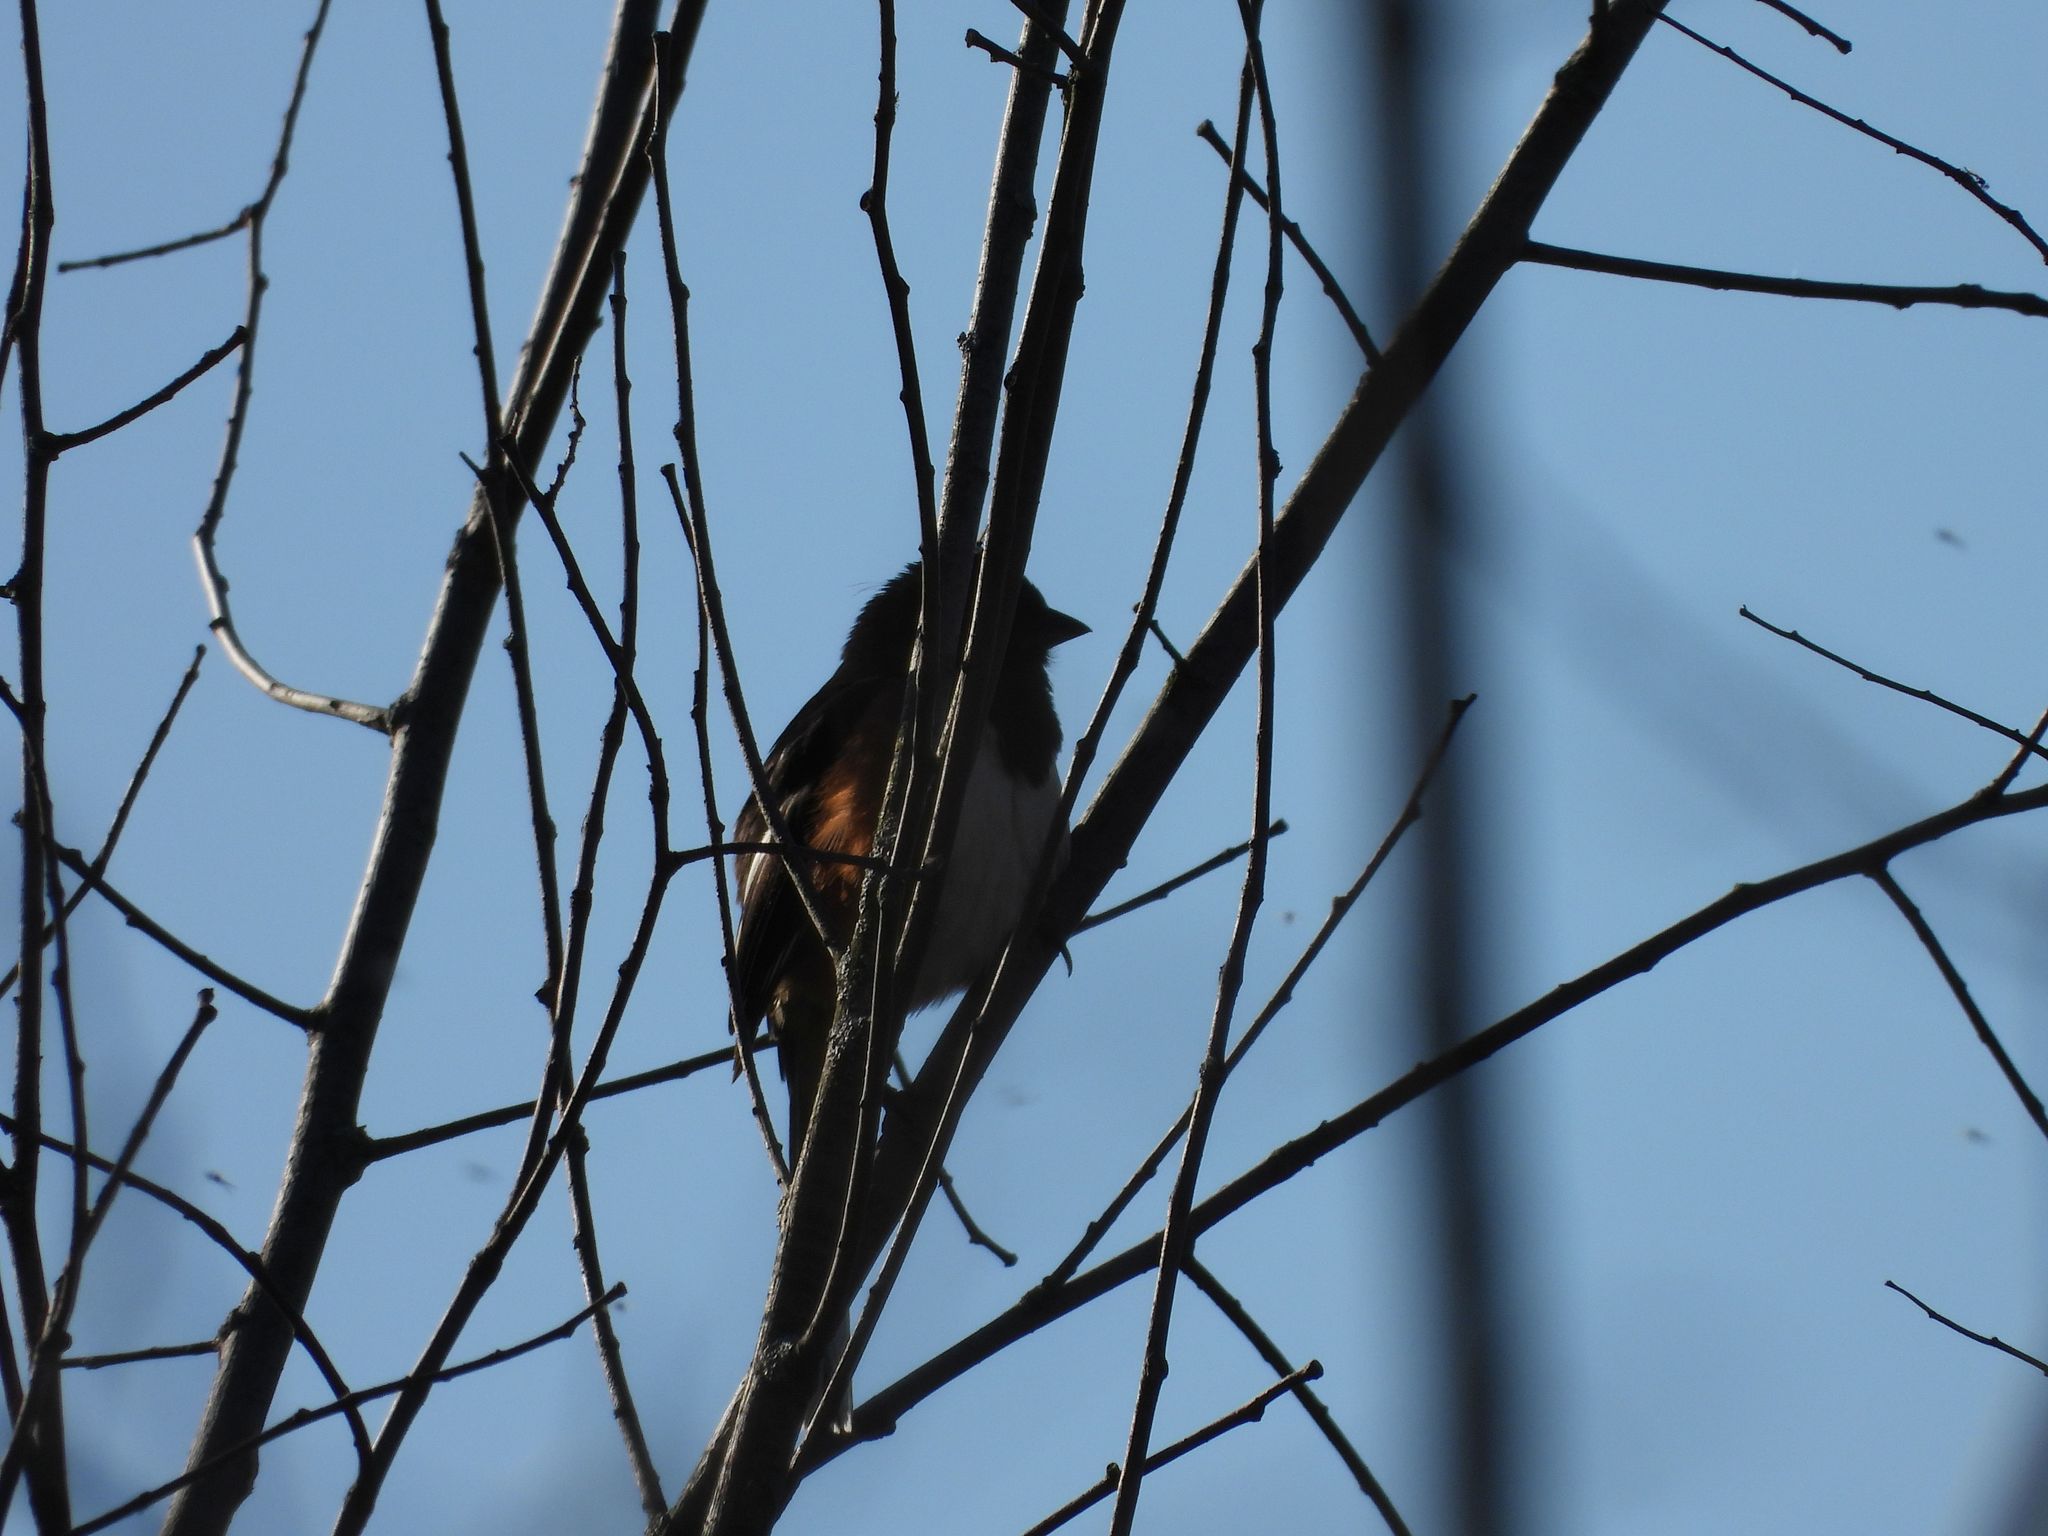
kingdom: Animalia
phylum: Chordata
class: Aves
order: Passeriformes
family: Passerellidae
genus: Pipilo
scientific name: Pipilo erythrophthalmus
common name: Eastern towhee
